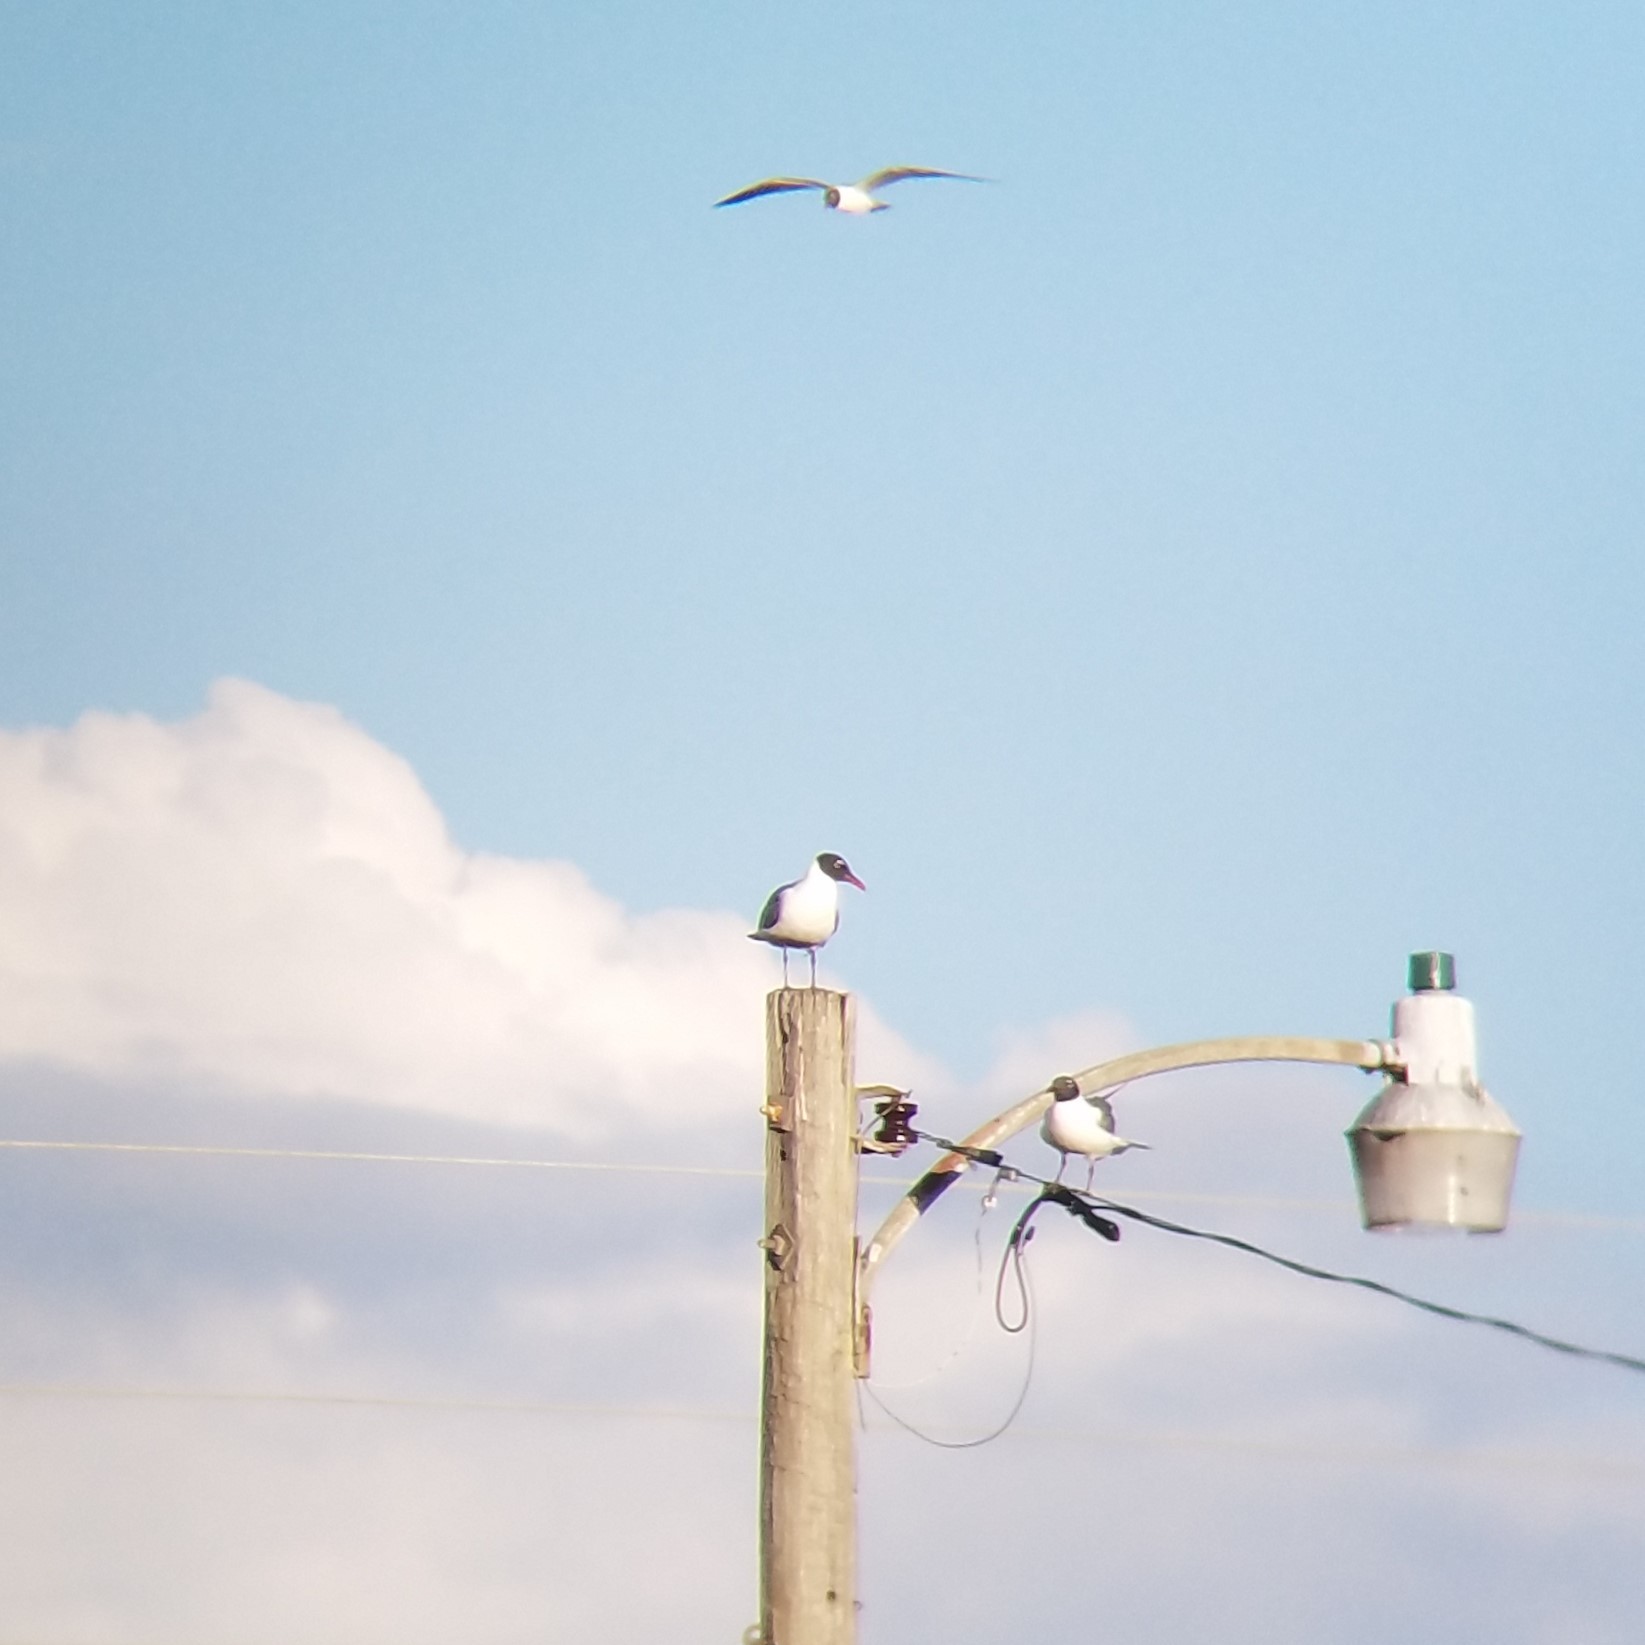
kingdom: Animalia
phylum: Chordata
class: Aves
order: Charadriiformes
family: Laridae
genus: Leucophaeus
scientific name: Leucophaeus atricilla
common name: Laughing gull
